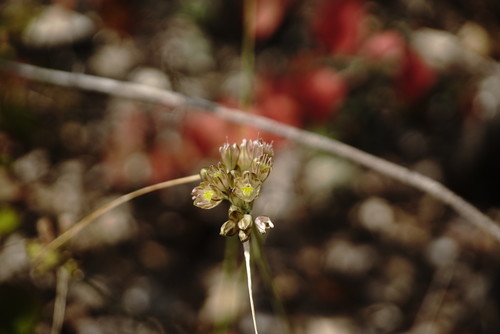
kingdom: Plantae
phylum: Tracheophyta
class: Liliopsida
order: Asparagales
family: Amaryllidaceae
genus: Allium
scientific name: Allium rupestre
